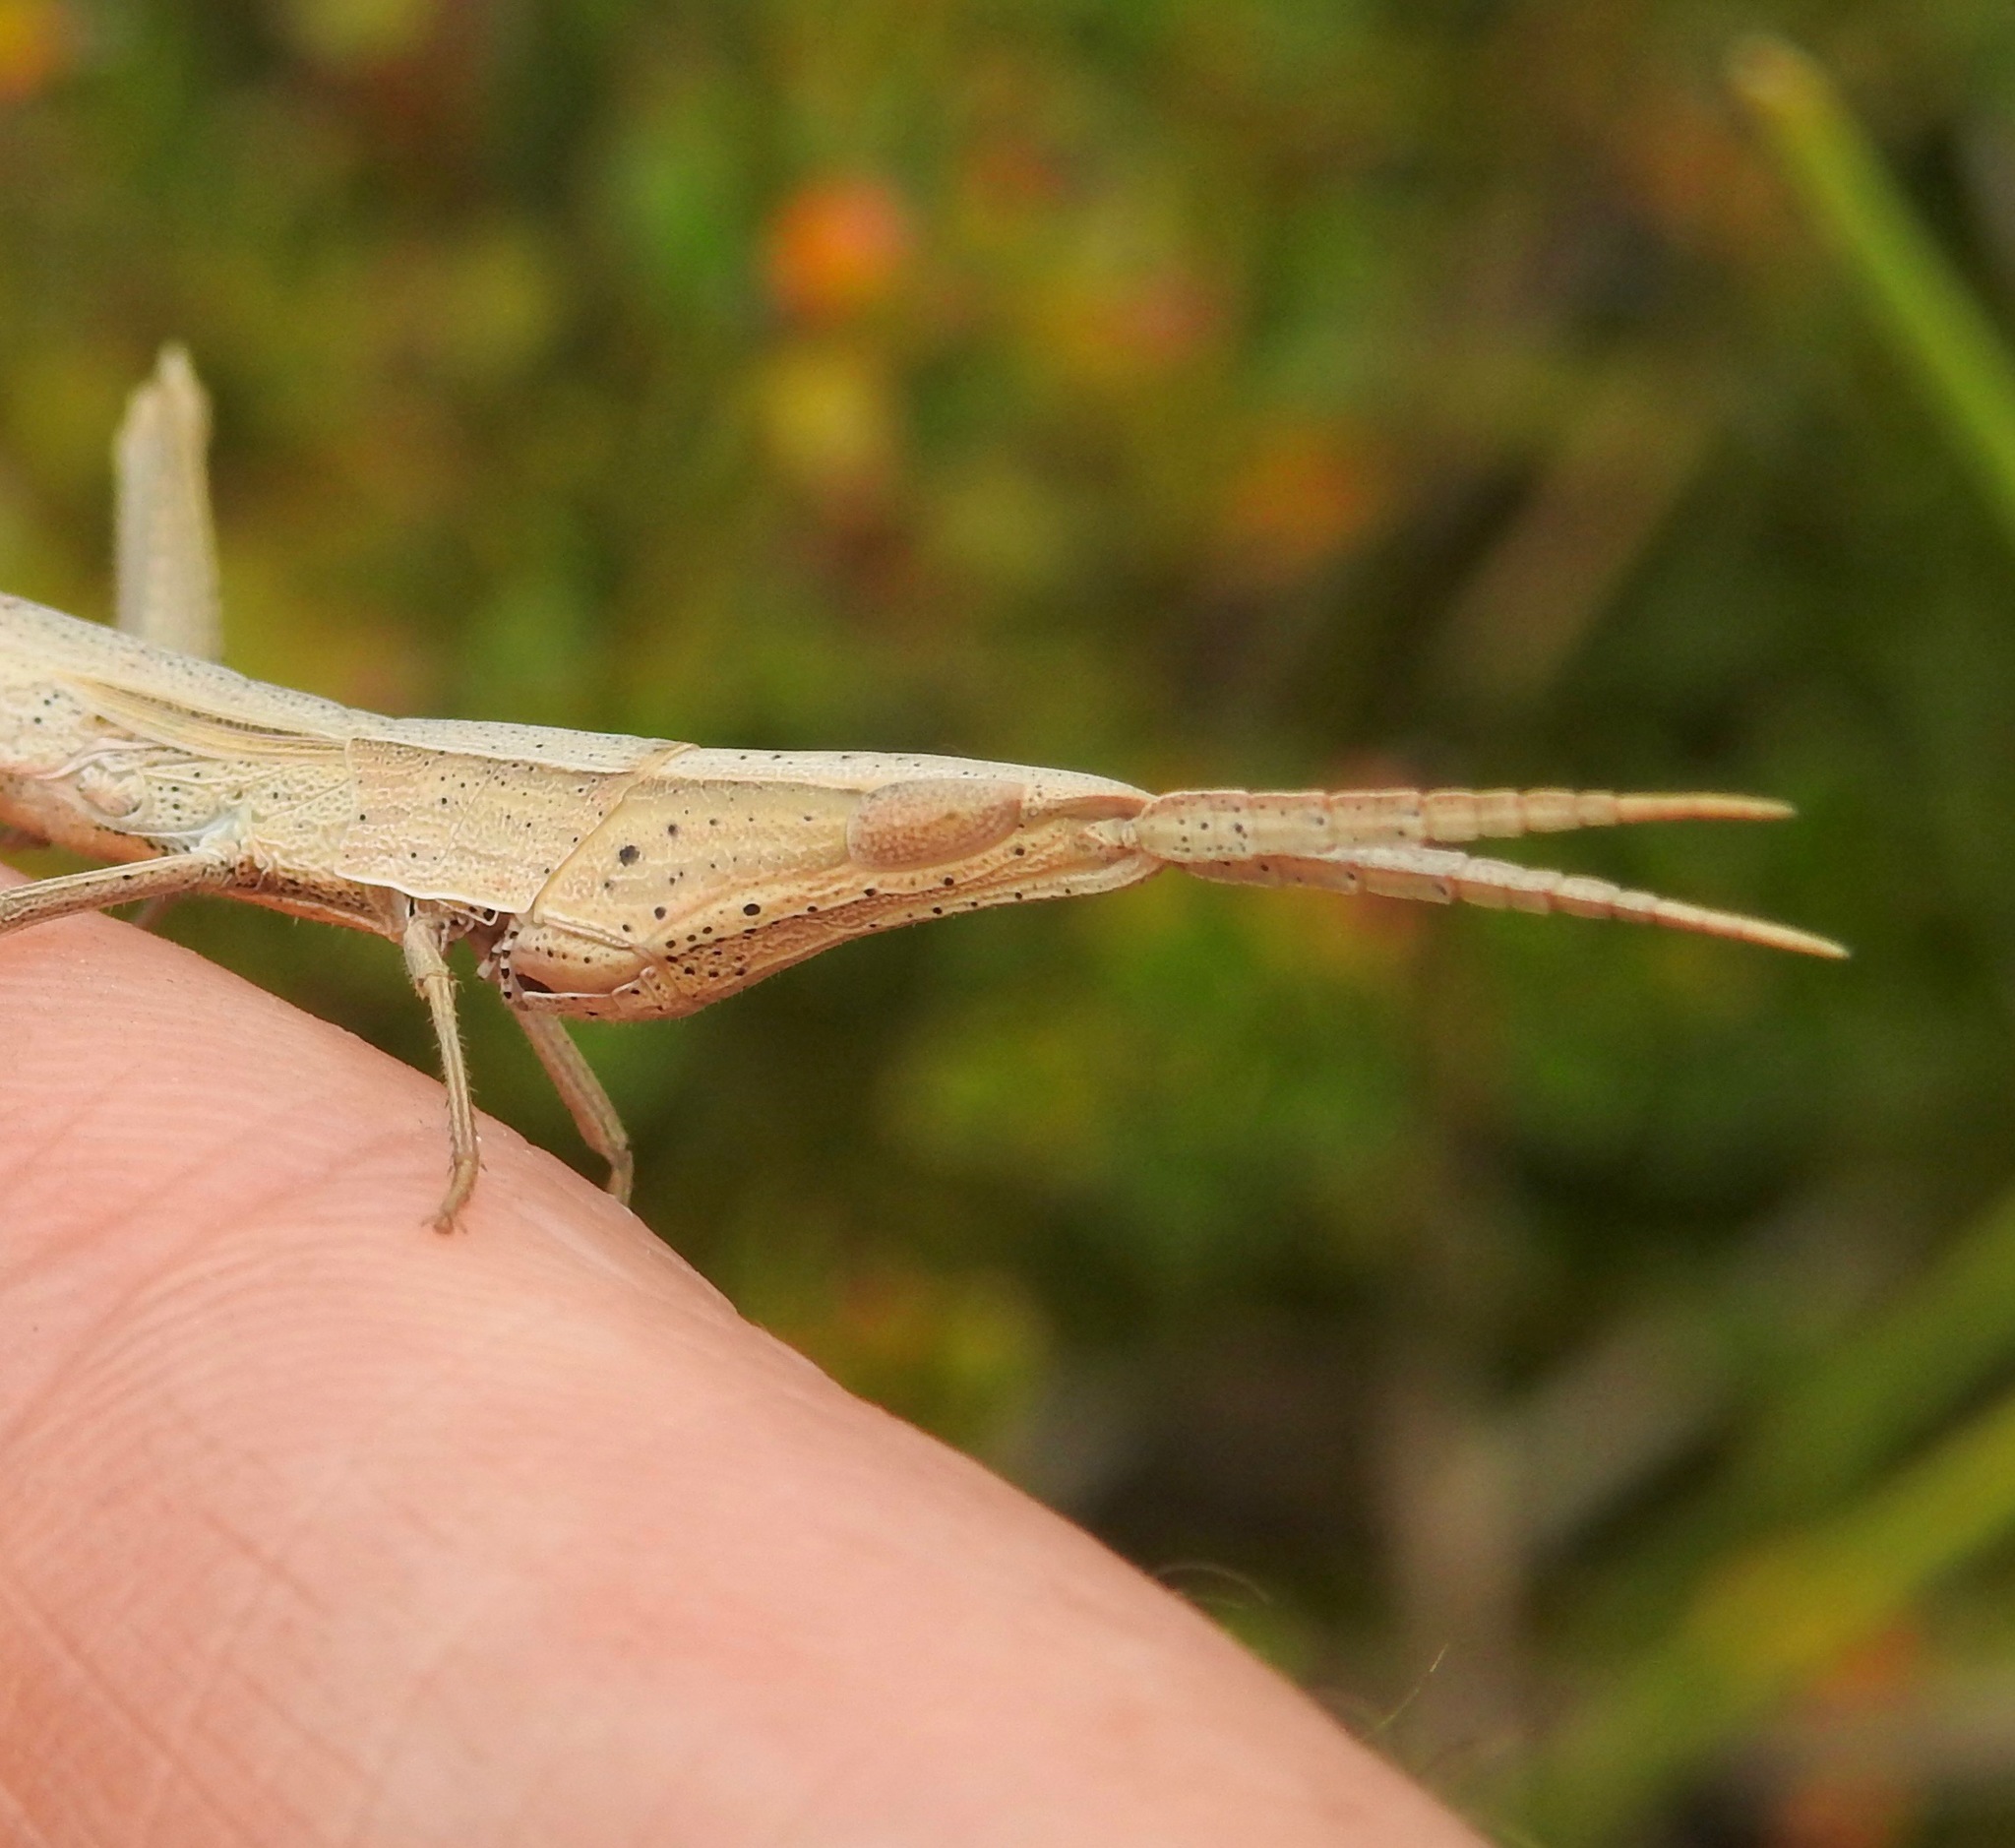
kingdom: Animalia
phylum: Arthropoda
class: Insecta
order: Orthoptera
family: Acrididae
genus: Achurum
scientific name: Achurum carinatum
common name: Long-headed toothpick grasshopper
